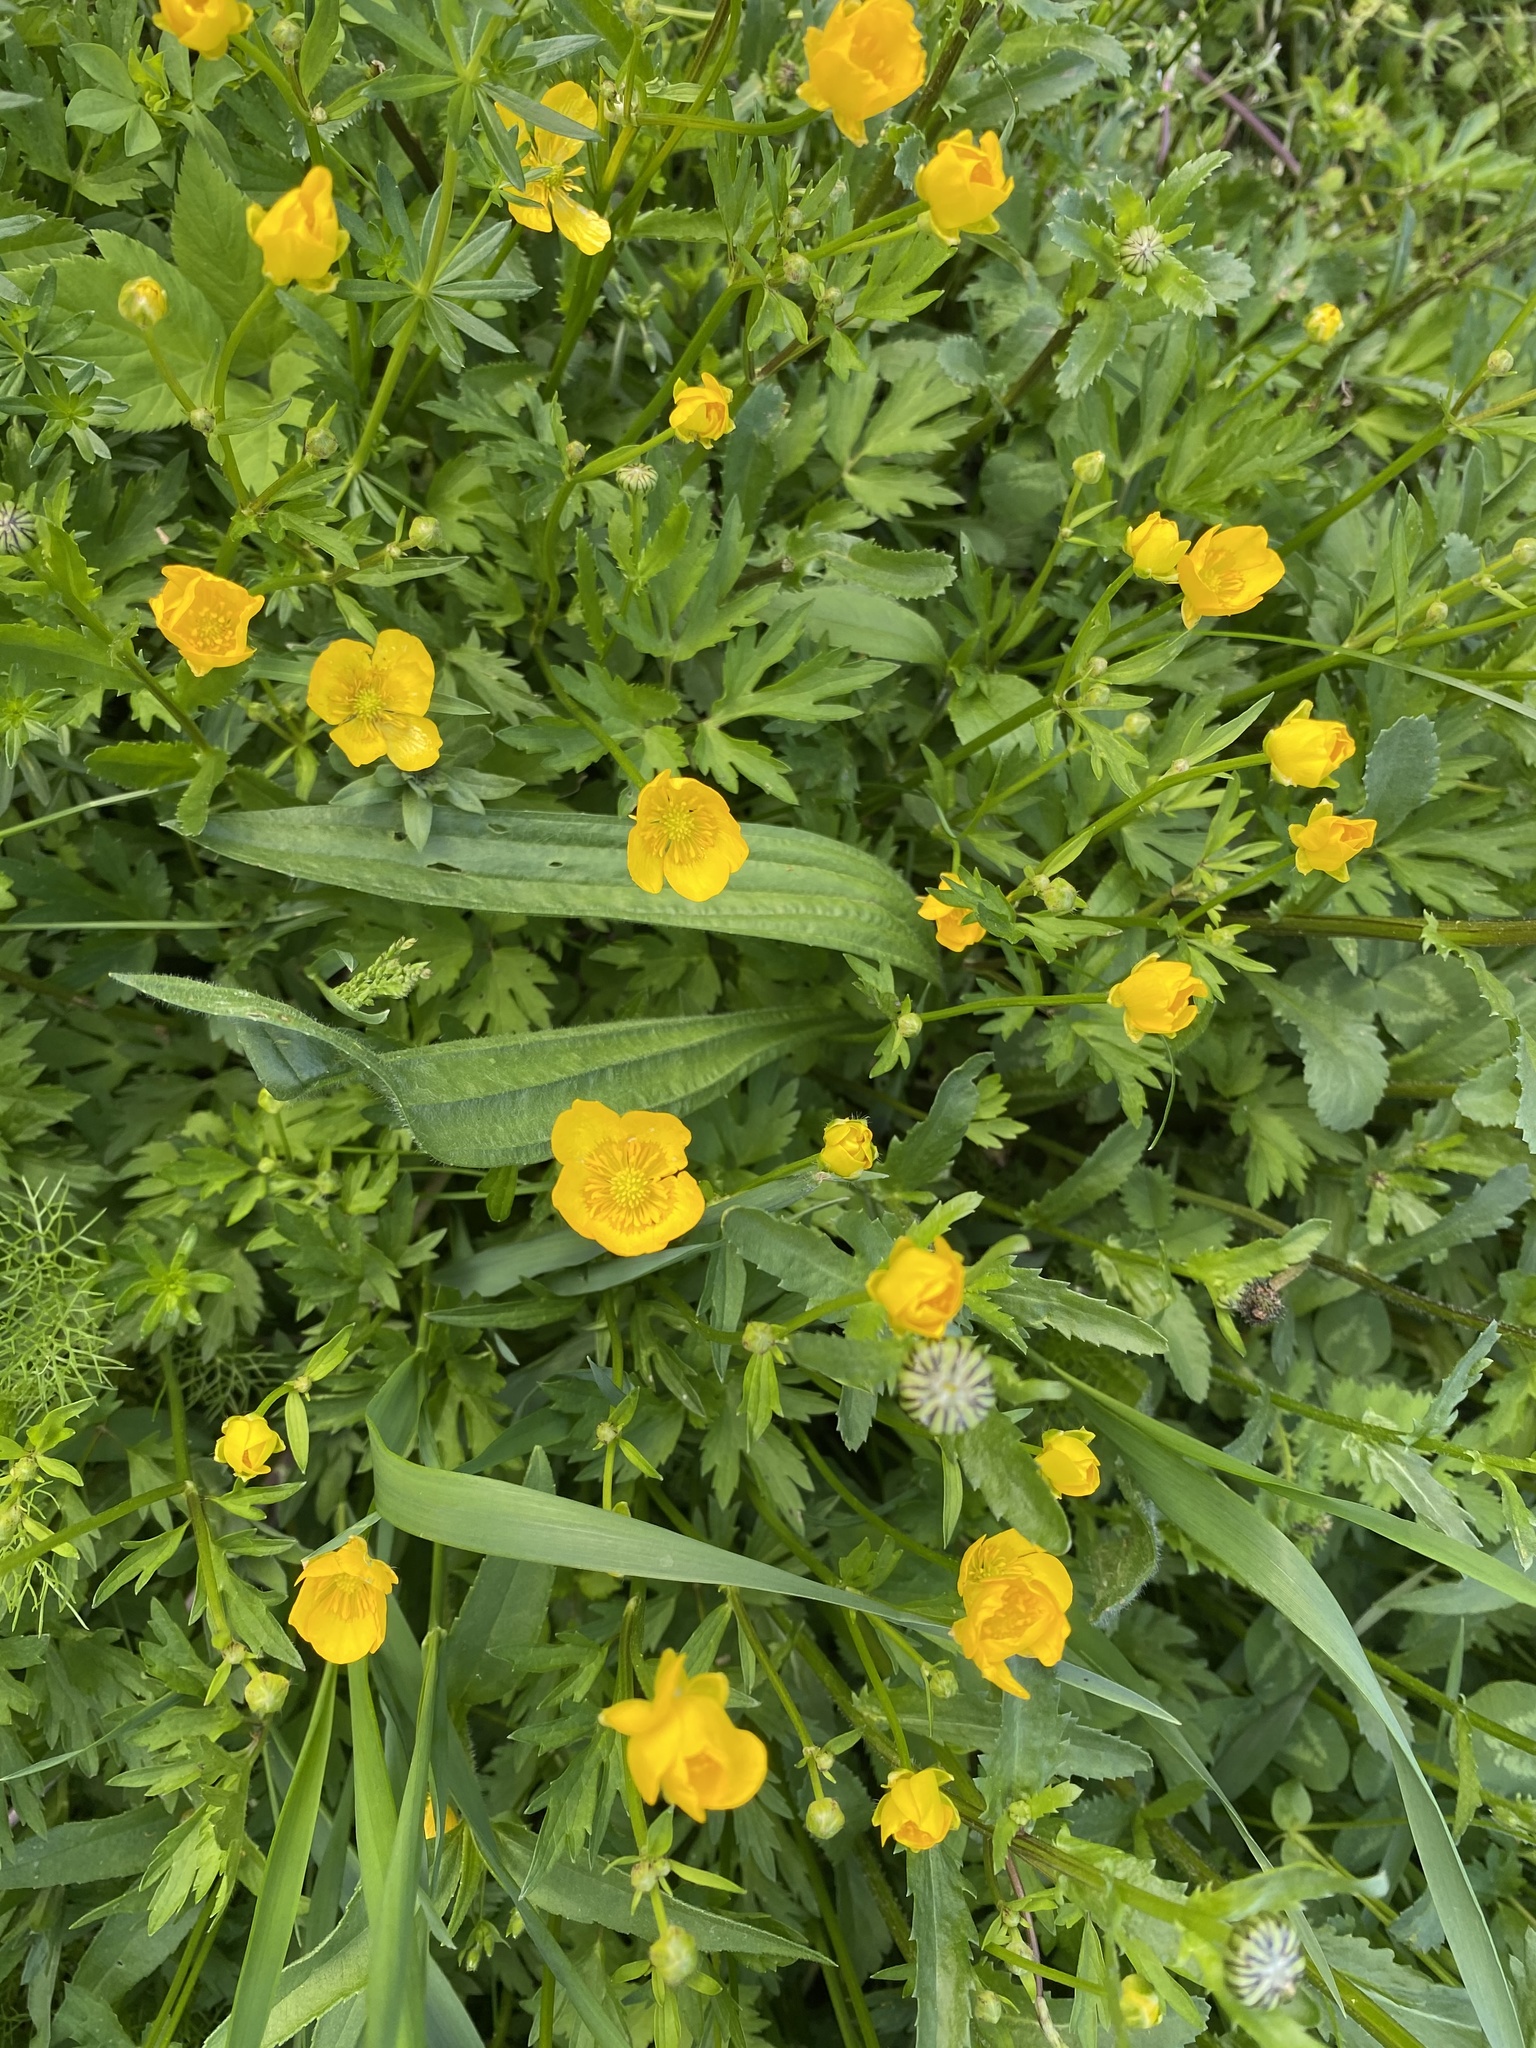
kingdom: Plantae
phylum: Tracheophyta
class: Magnoliopsida
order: Ranunculales
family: Ranunculaceae
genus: Ranunculus
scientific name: Ranunculus repens
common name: Creeping buttercup
